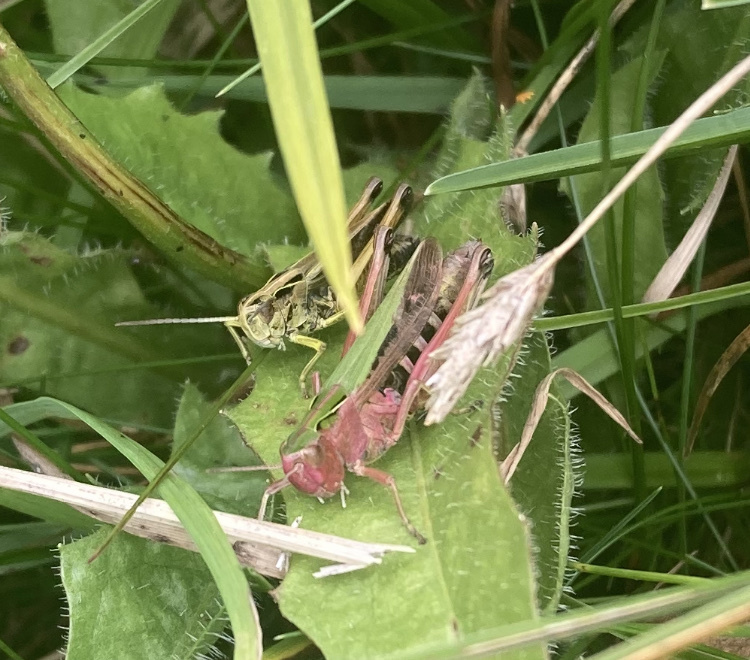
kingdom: Animalia
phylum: Arthropoda
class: Insecta
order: Orthoptera
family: Acrididae
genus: Omocestus
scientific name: Omocestus viridulus
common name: Common green grasshopper
